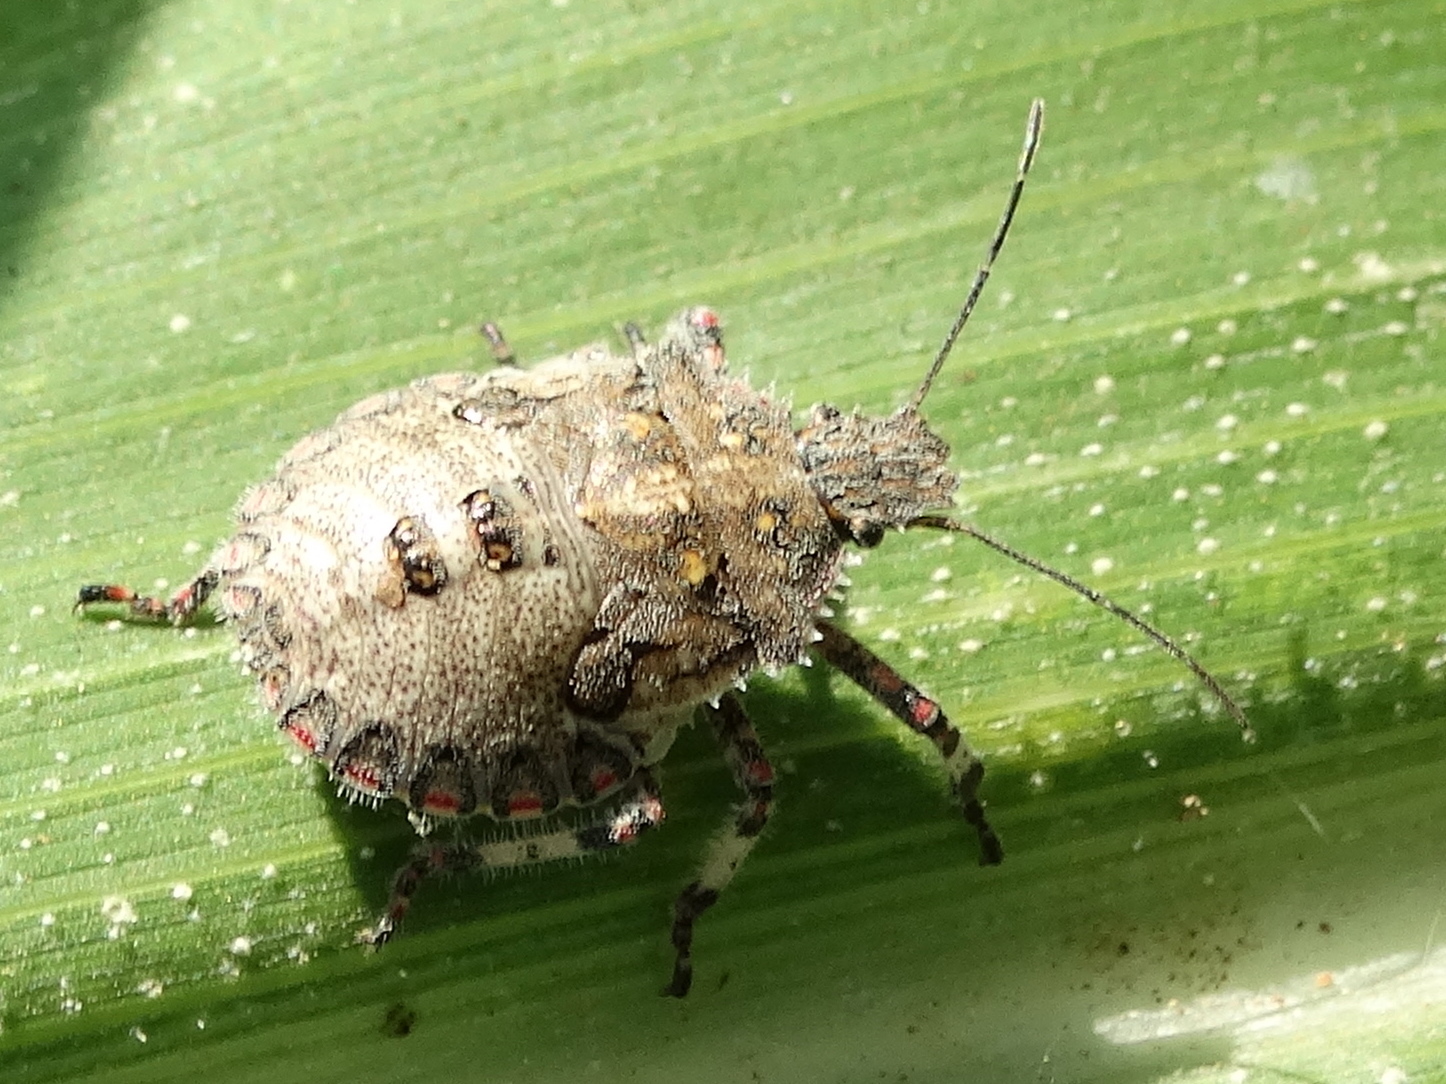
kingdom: Animalia
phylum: Arthropoda
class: Insecta
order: Hemiptera
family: Pentatomidae
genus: Brochymena
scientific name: Brochymena
